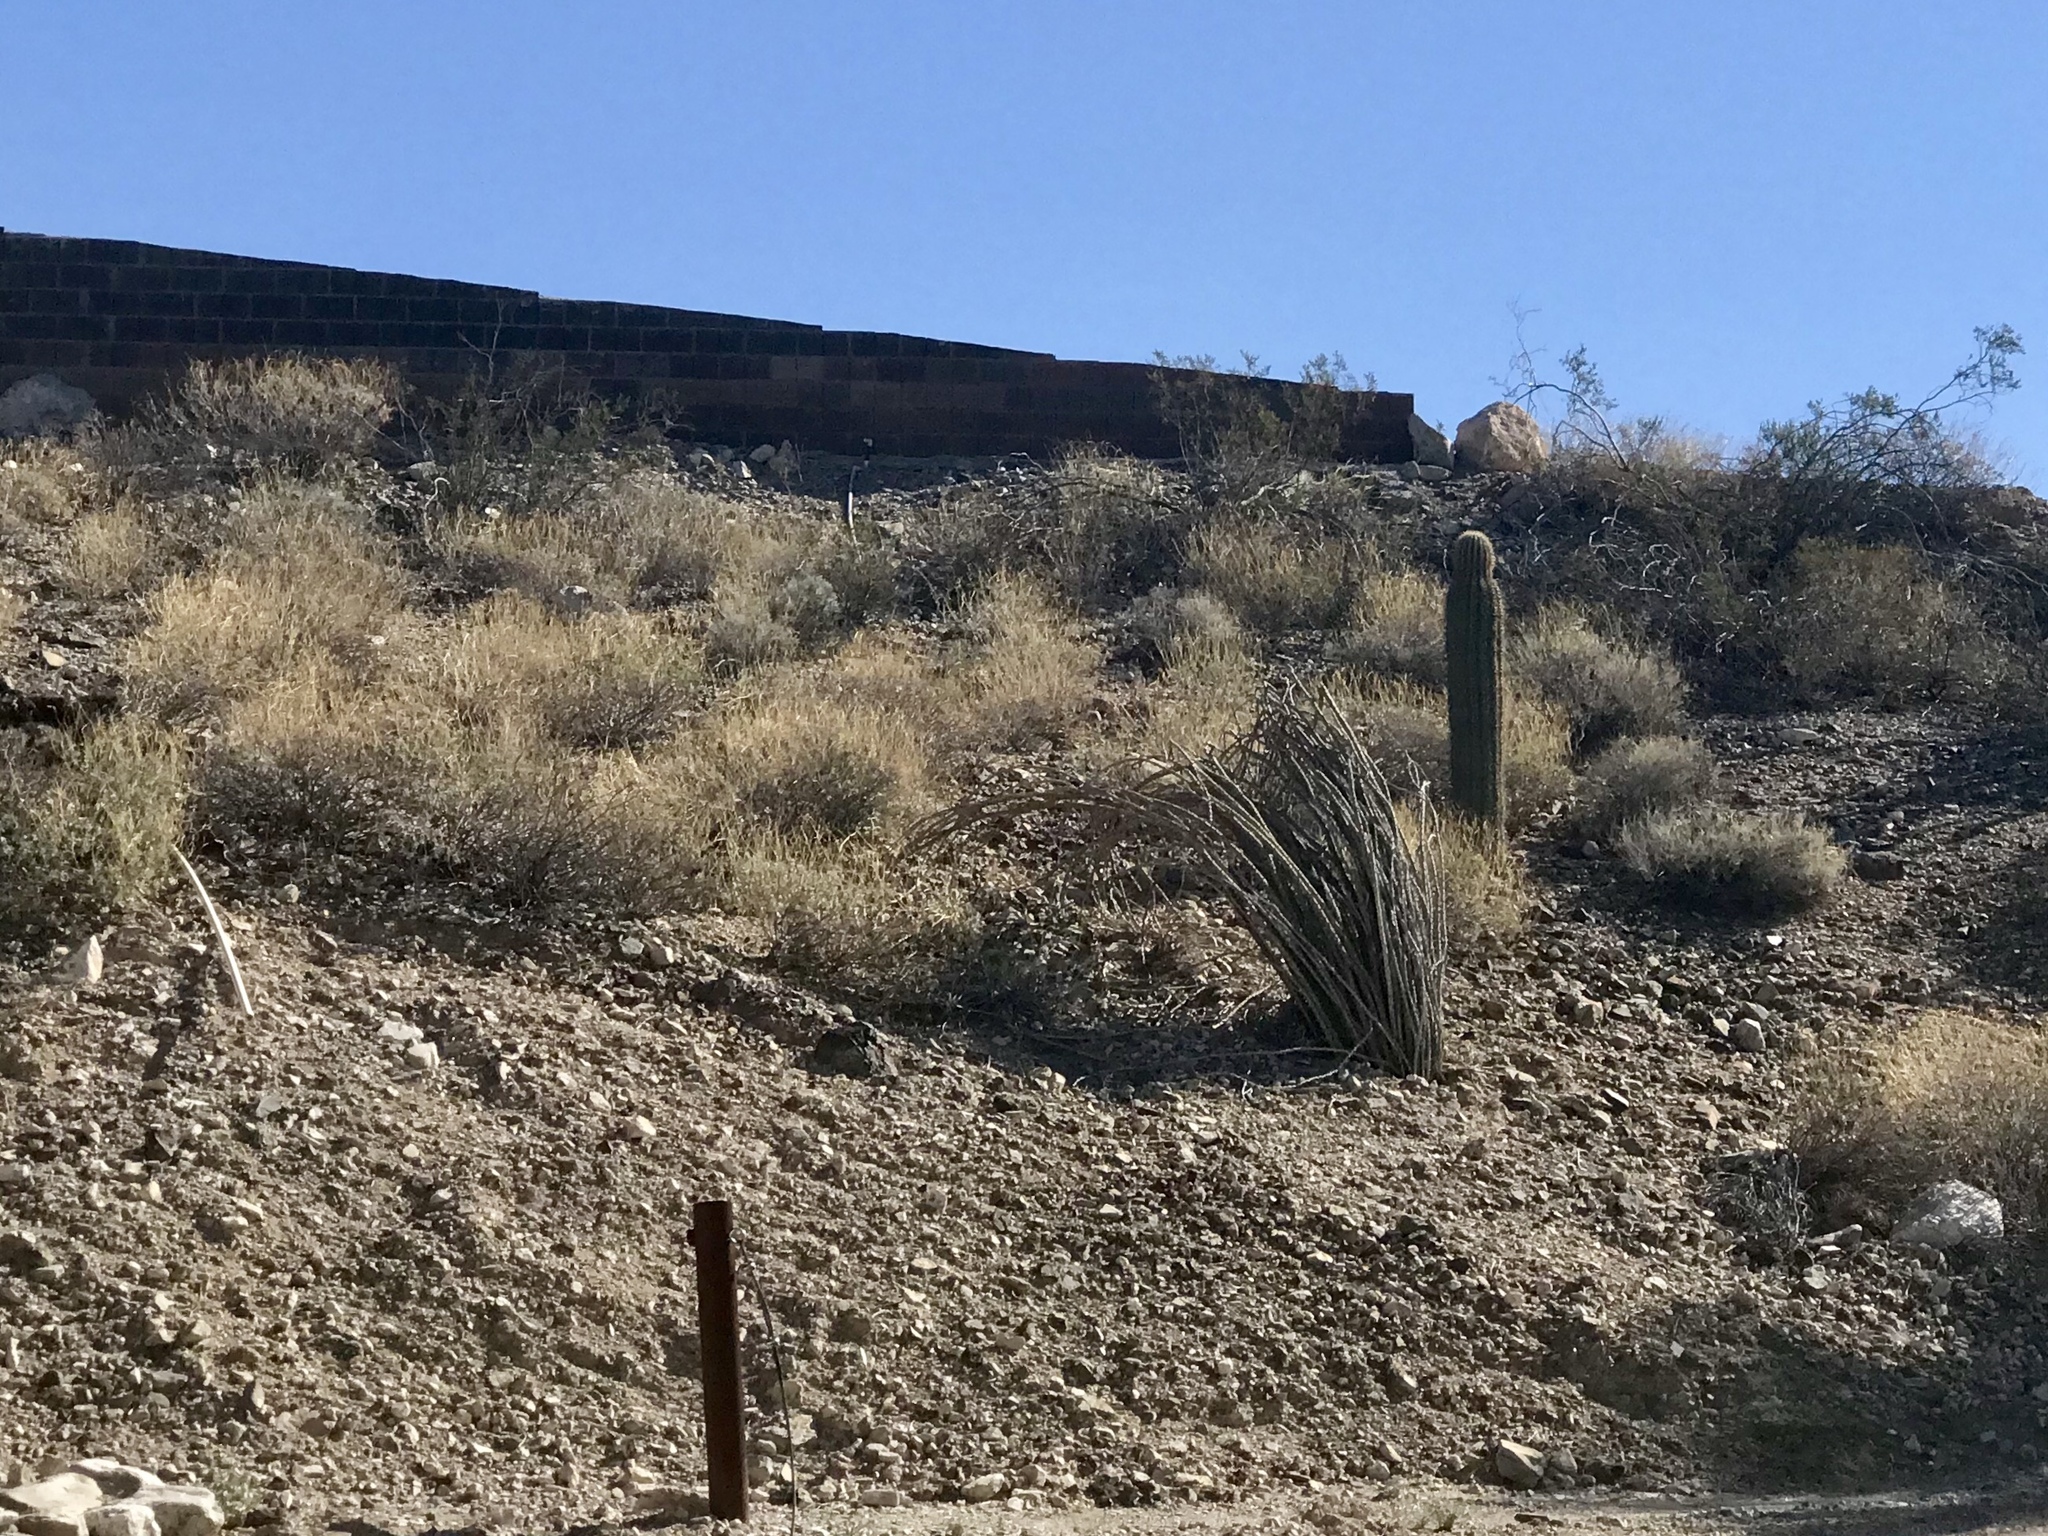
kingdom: Plantae
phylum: Tracheophyta
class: Magnoliopsida
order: Caryophyllales
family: Cactaceae
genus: Carnegiea
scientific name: Carnegiea gigantea
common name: Saguaro
